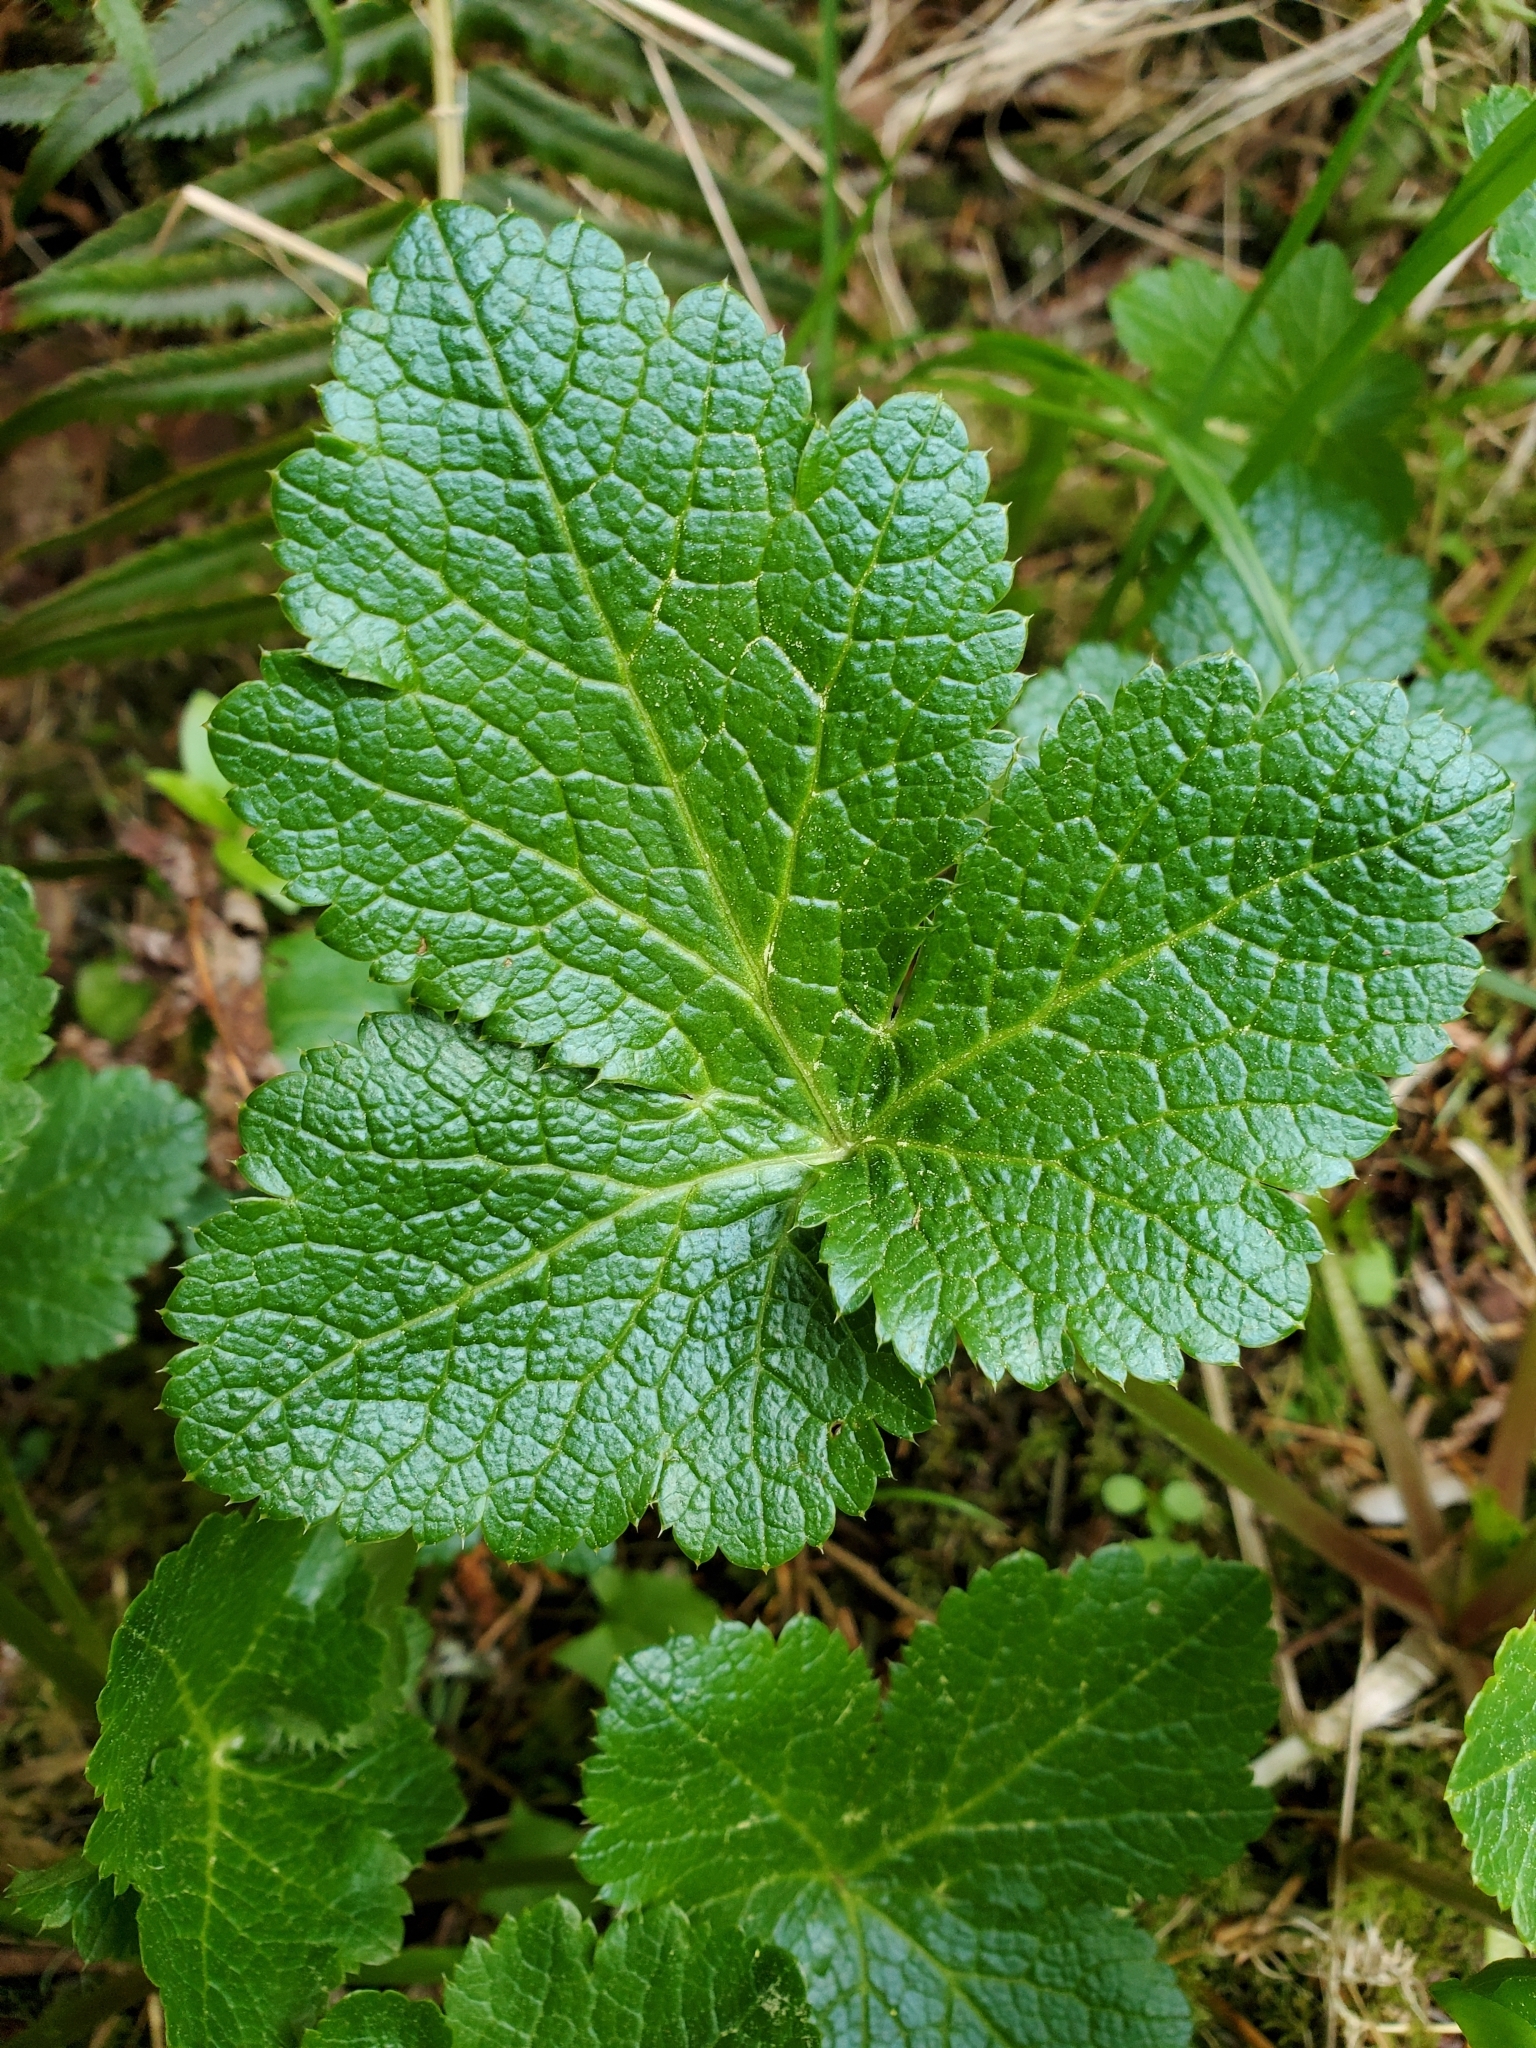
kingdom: Plantae
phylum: Tracheophyta
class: Magnoliopsida
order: Apiales
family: Apiaceae
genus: Sanicula
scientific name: Sanicula crassicaulis
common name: Western snakeroot
